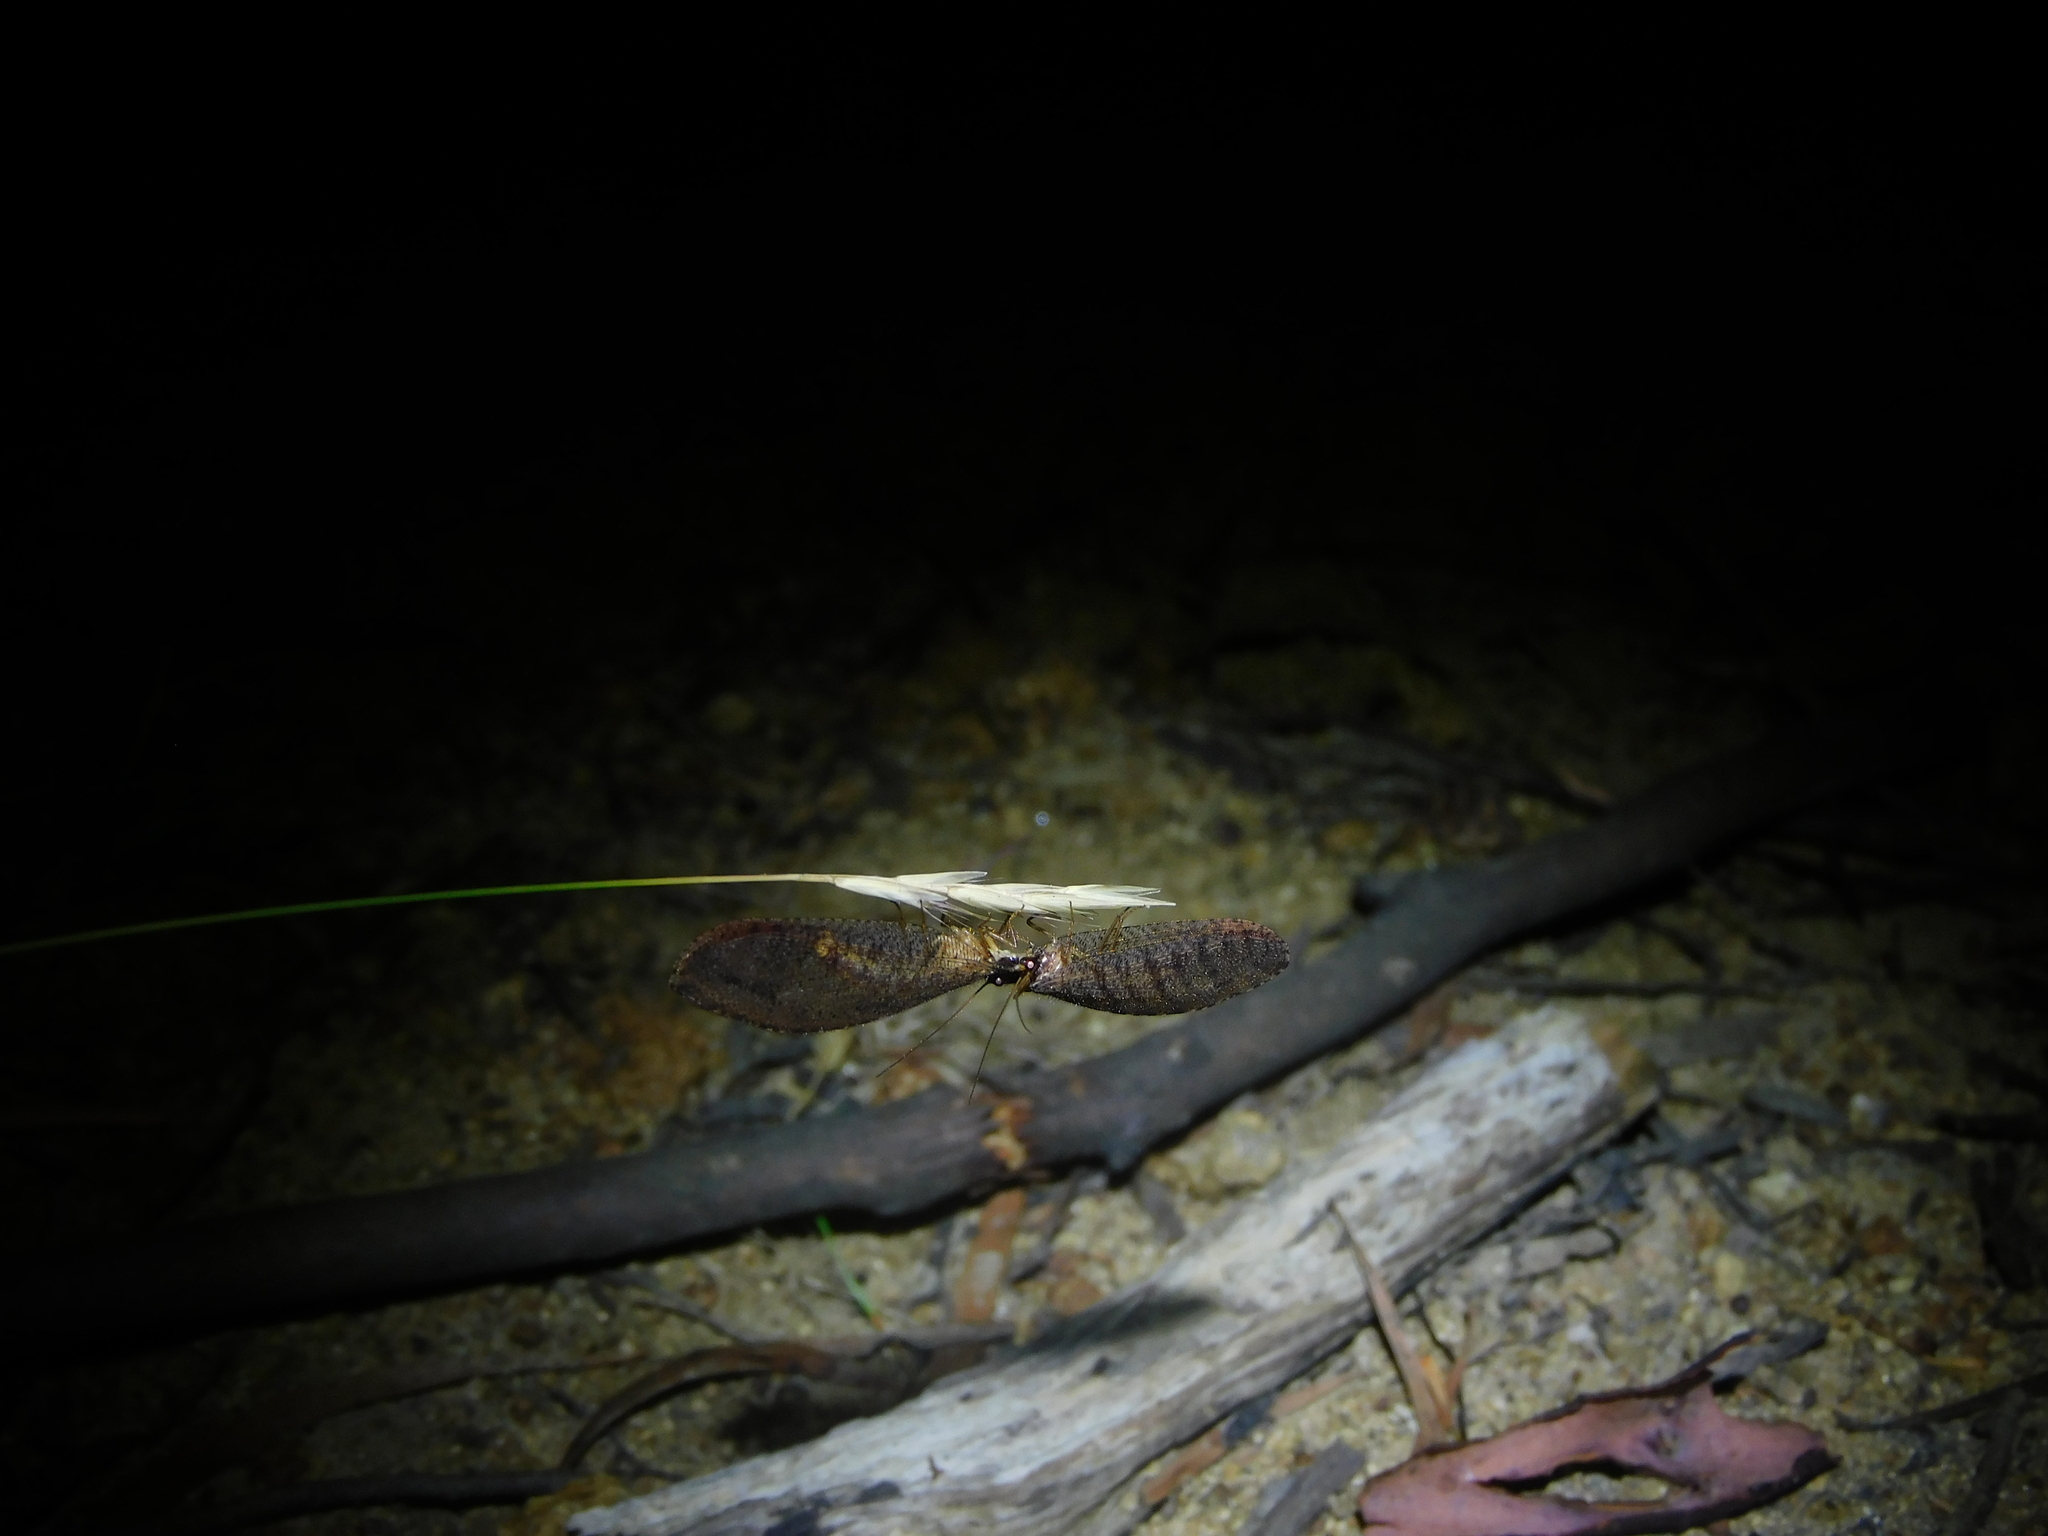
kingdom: Animalia
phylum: Arthropoda
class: Insecta
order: Neuroptera
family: Osmylidae
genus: Oedosmylus
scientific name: Oedosmylus tasmaniensis
